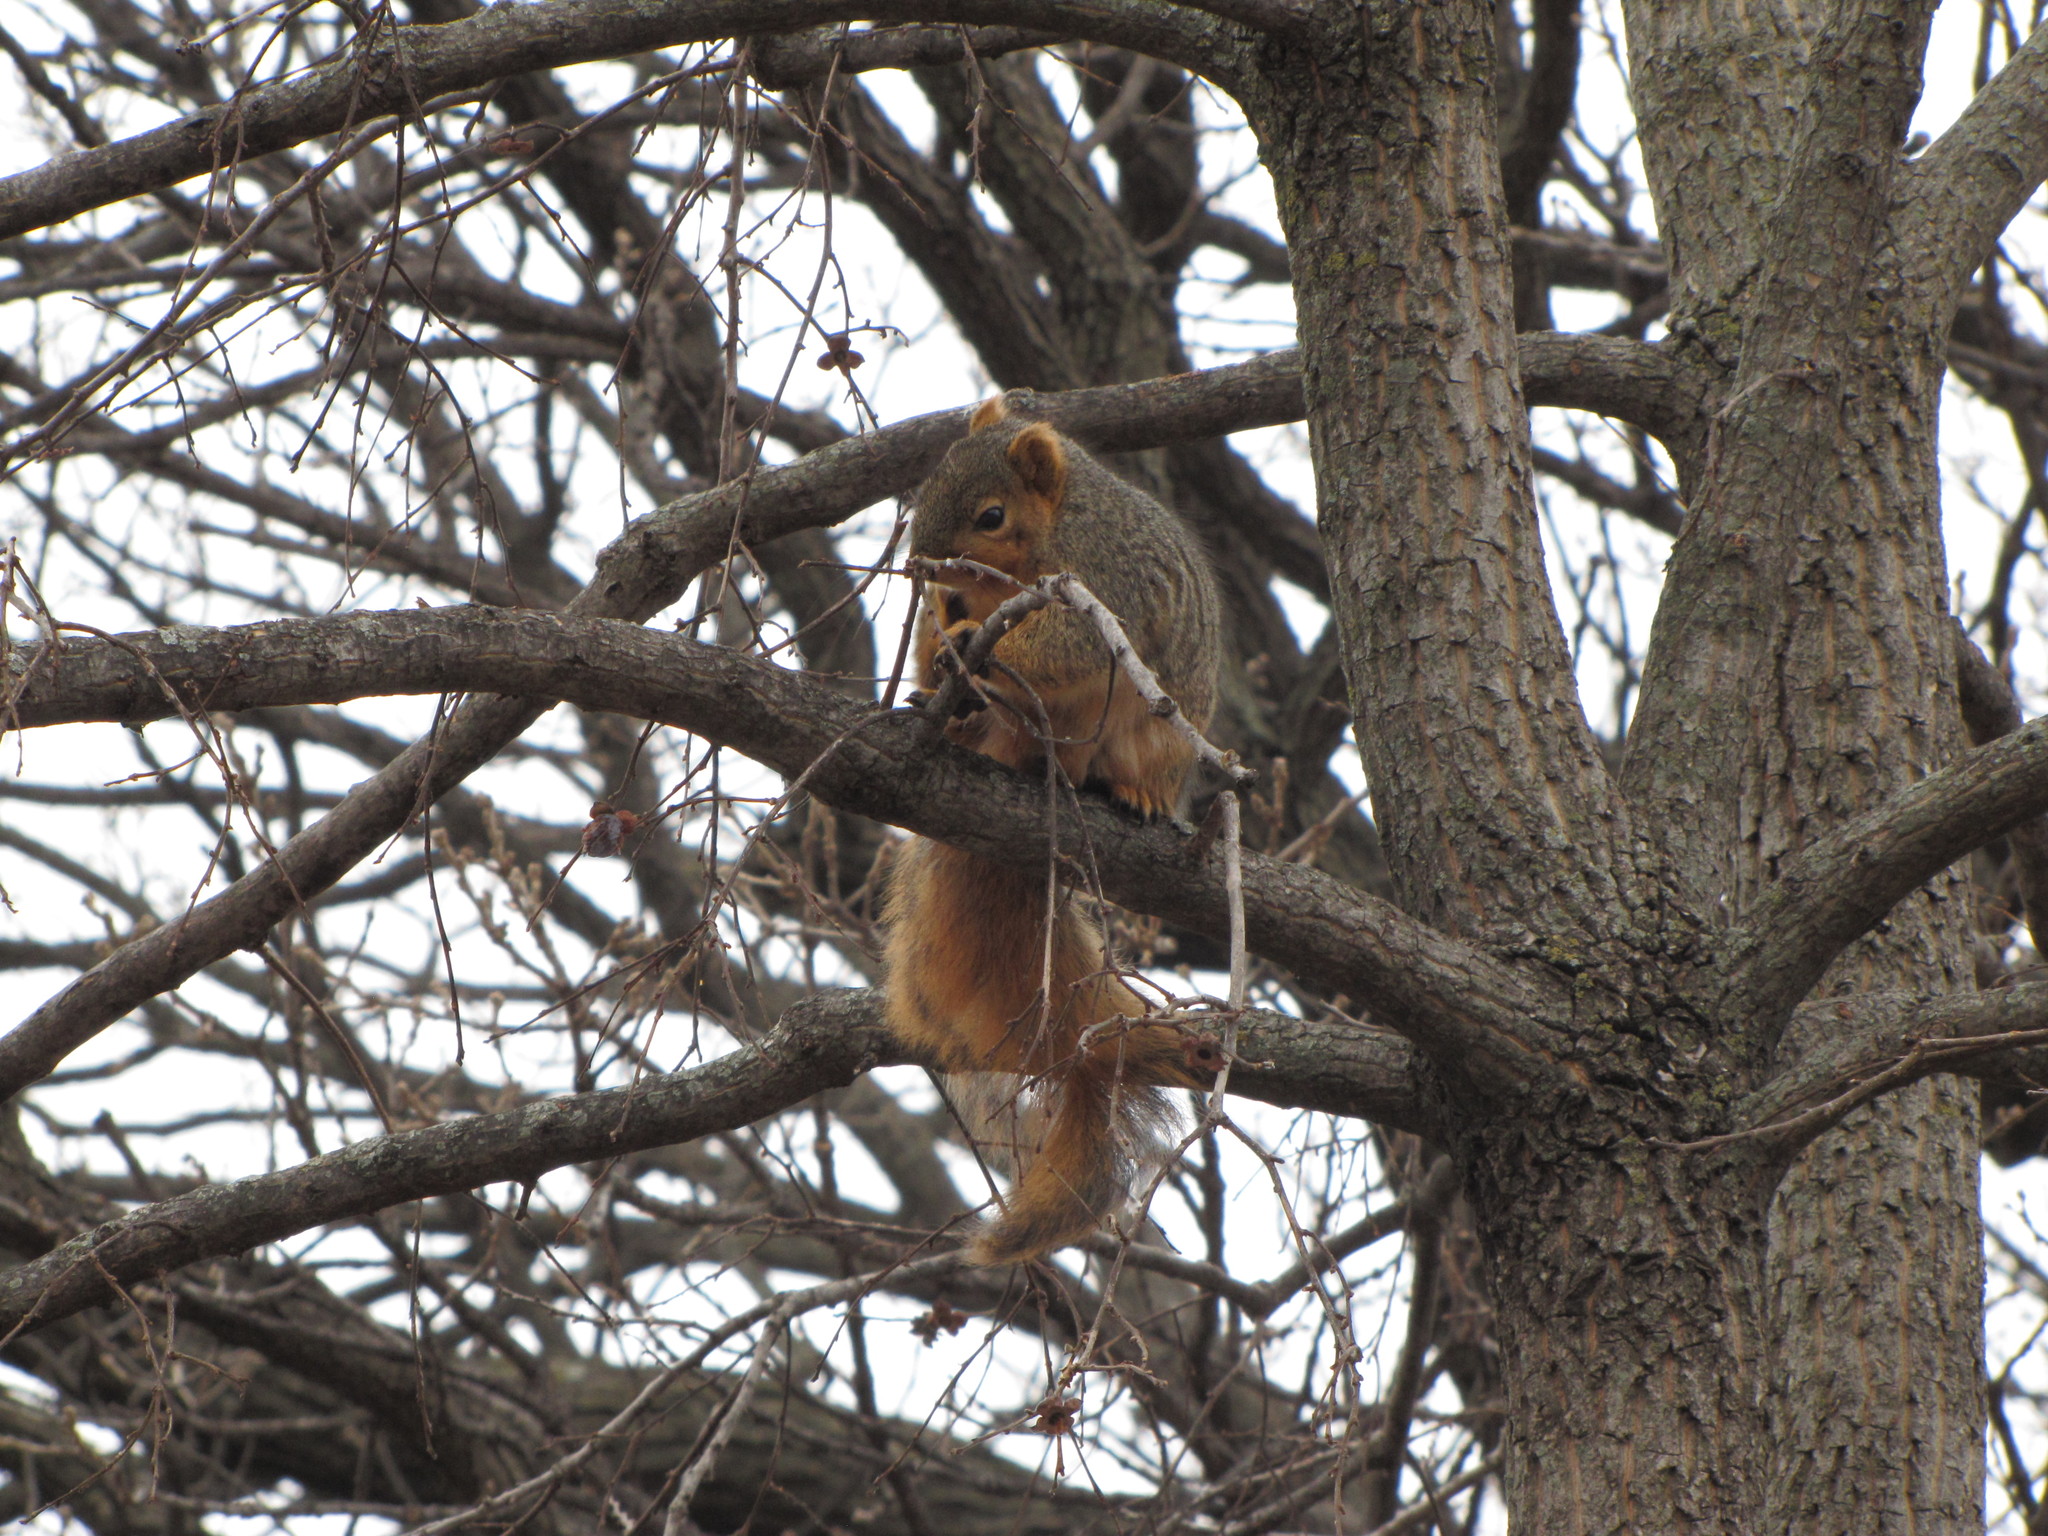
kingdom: Animalia
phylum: Chordata
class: Mammalia
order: Rodentia
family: Sciuridae
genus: Sciurus
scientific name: Sciurus niger
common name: Fox squirrel
